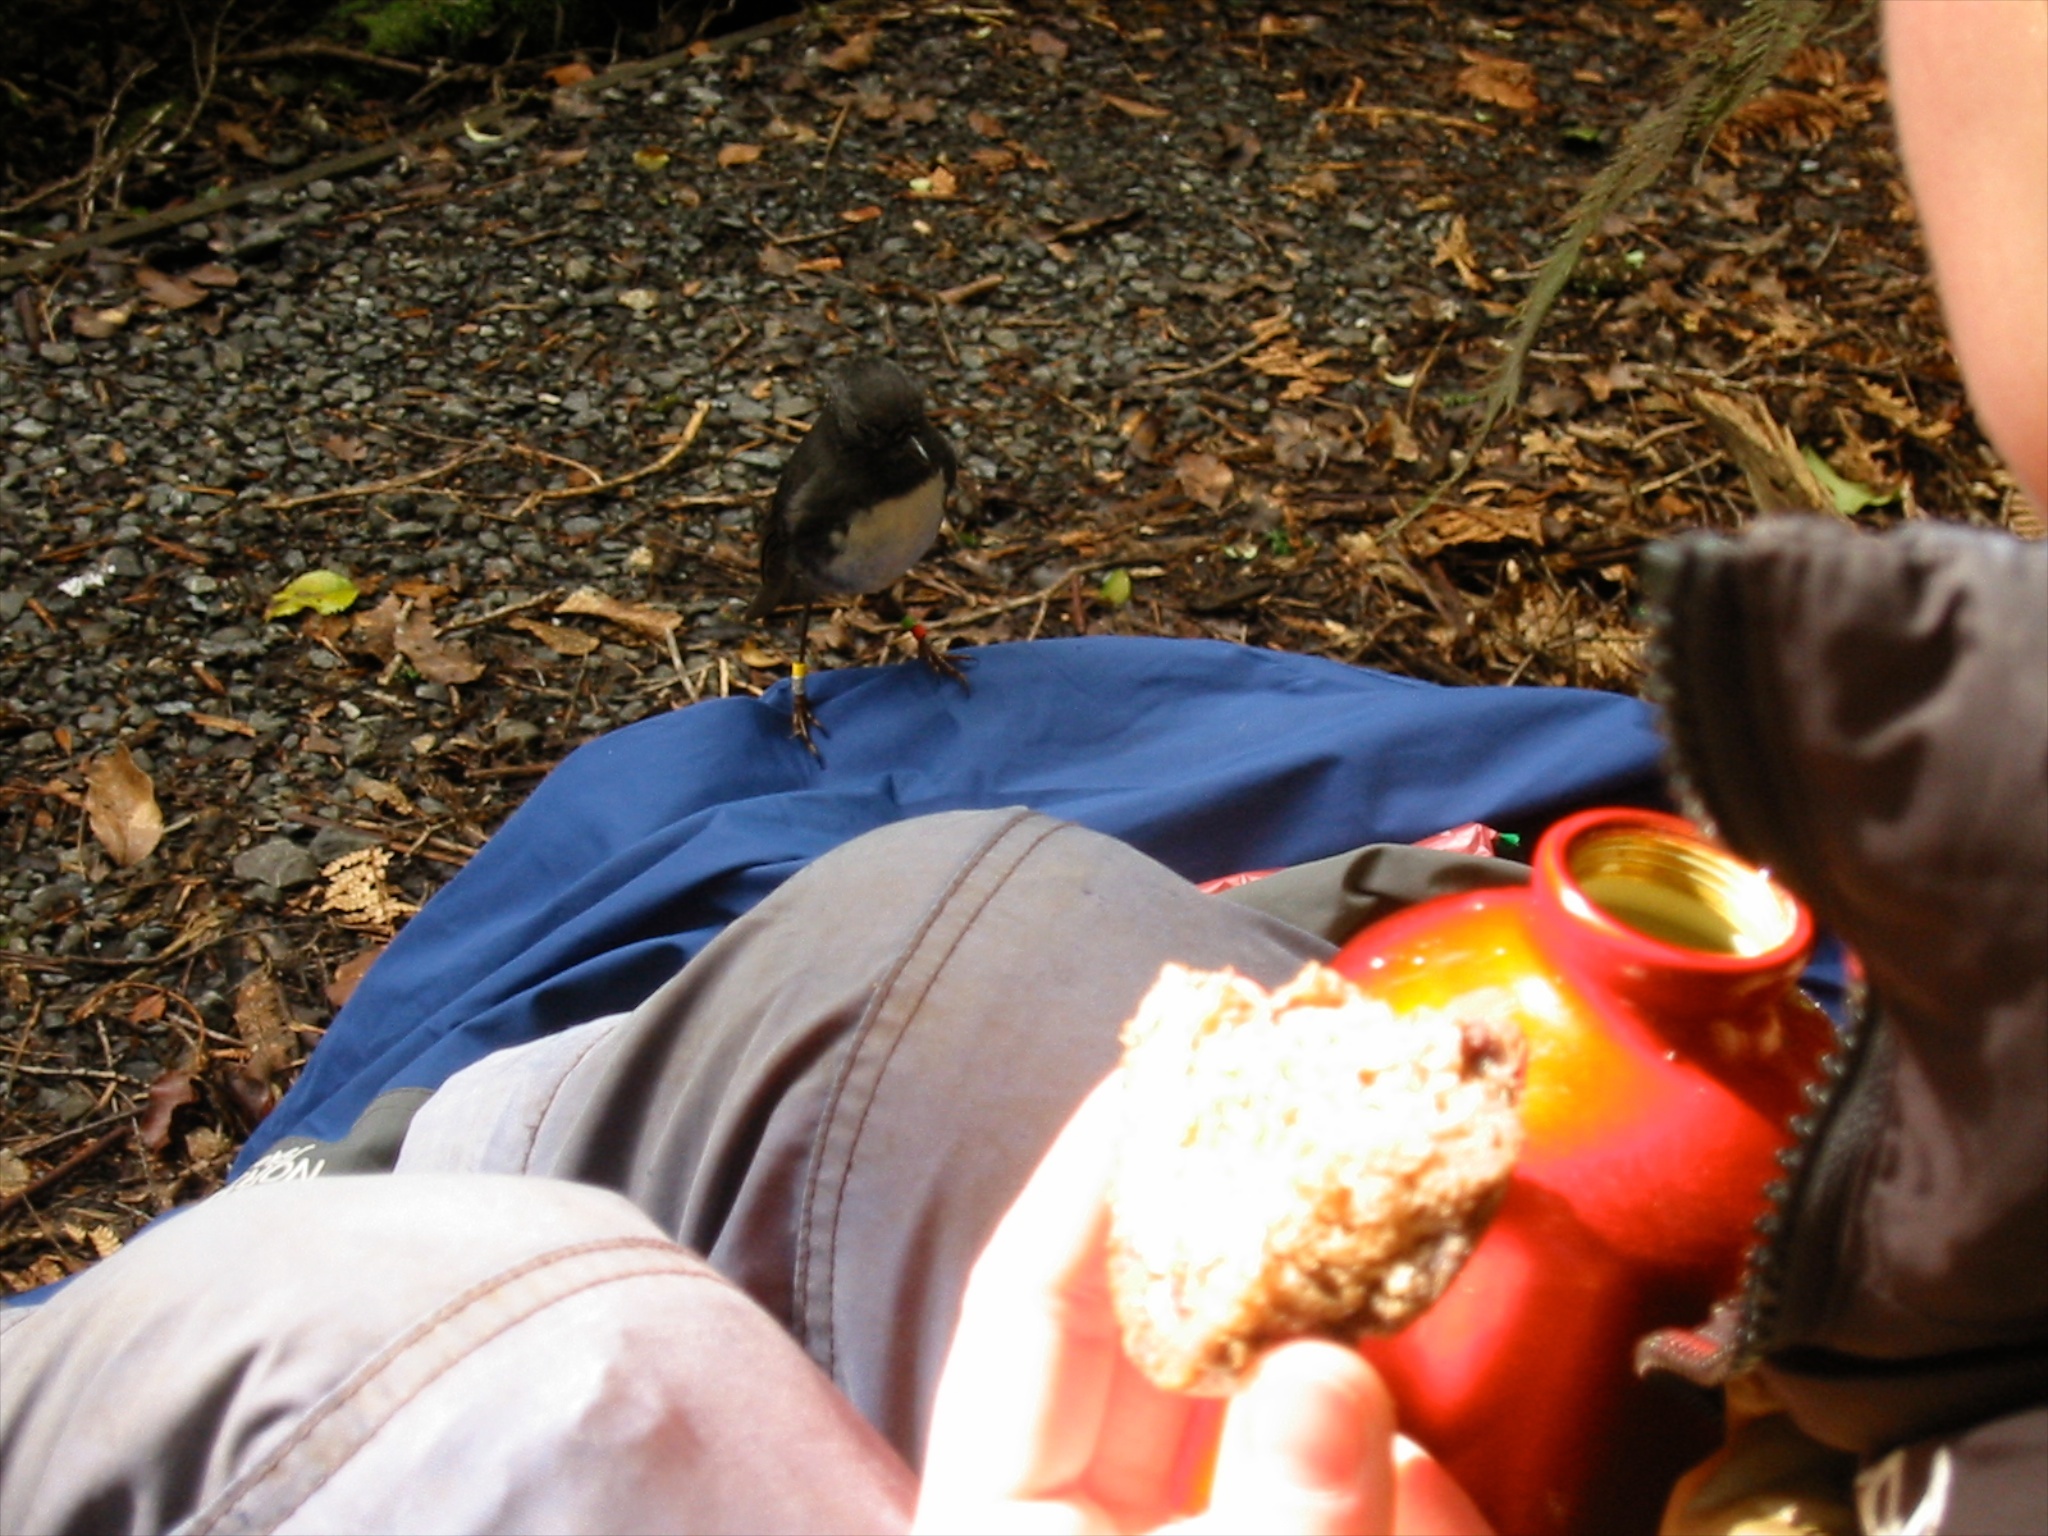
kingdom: Animalia
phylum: Chordata
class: Aves
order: Passeriformes
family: Petroicidae
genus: Petroica
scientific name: Petroica australis
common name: New zealand robin
